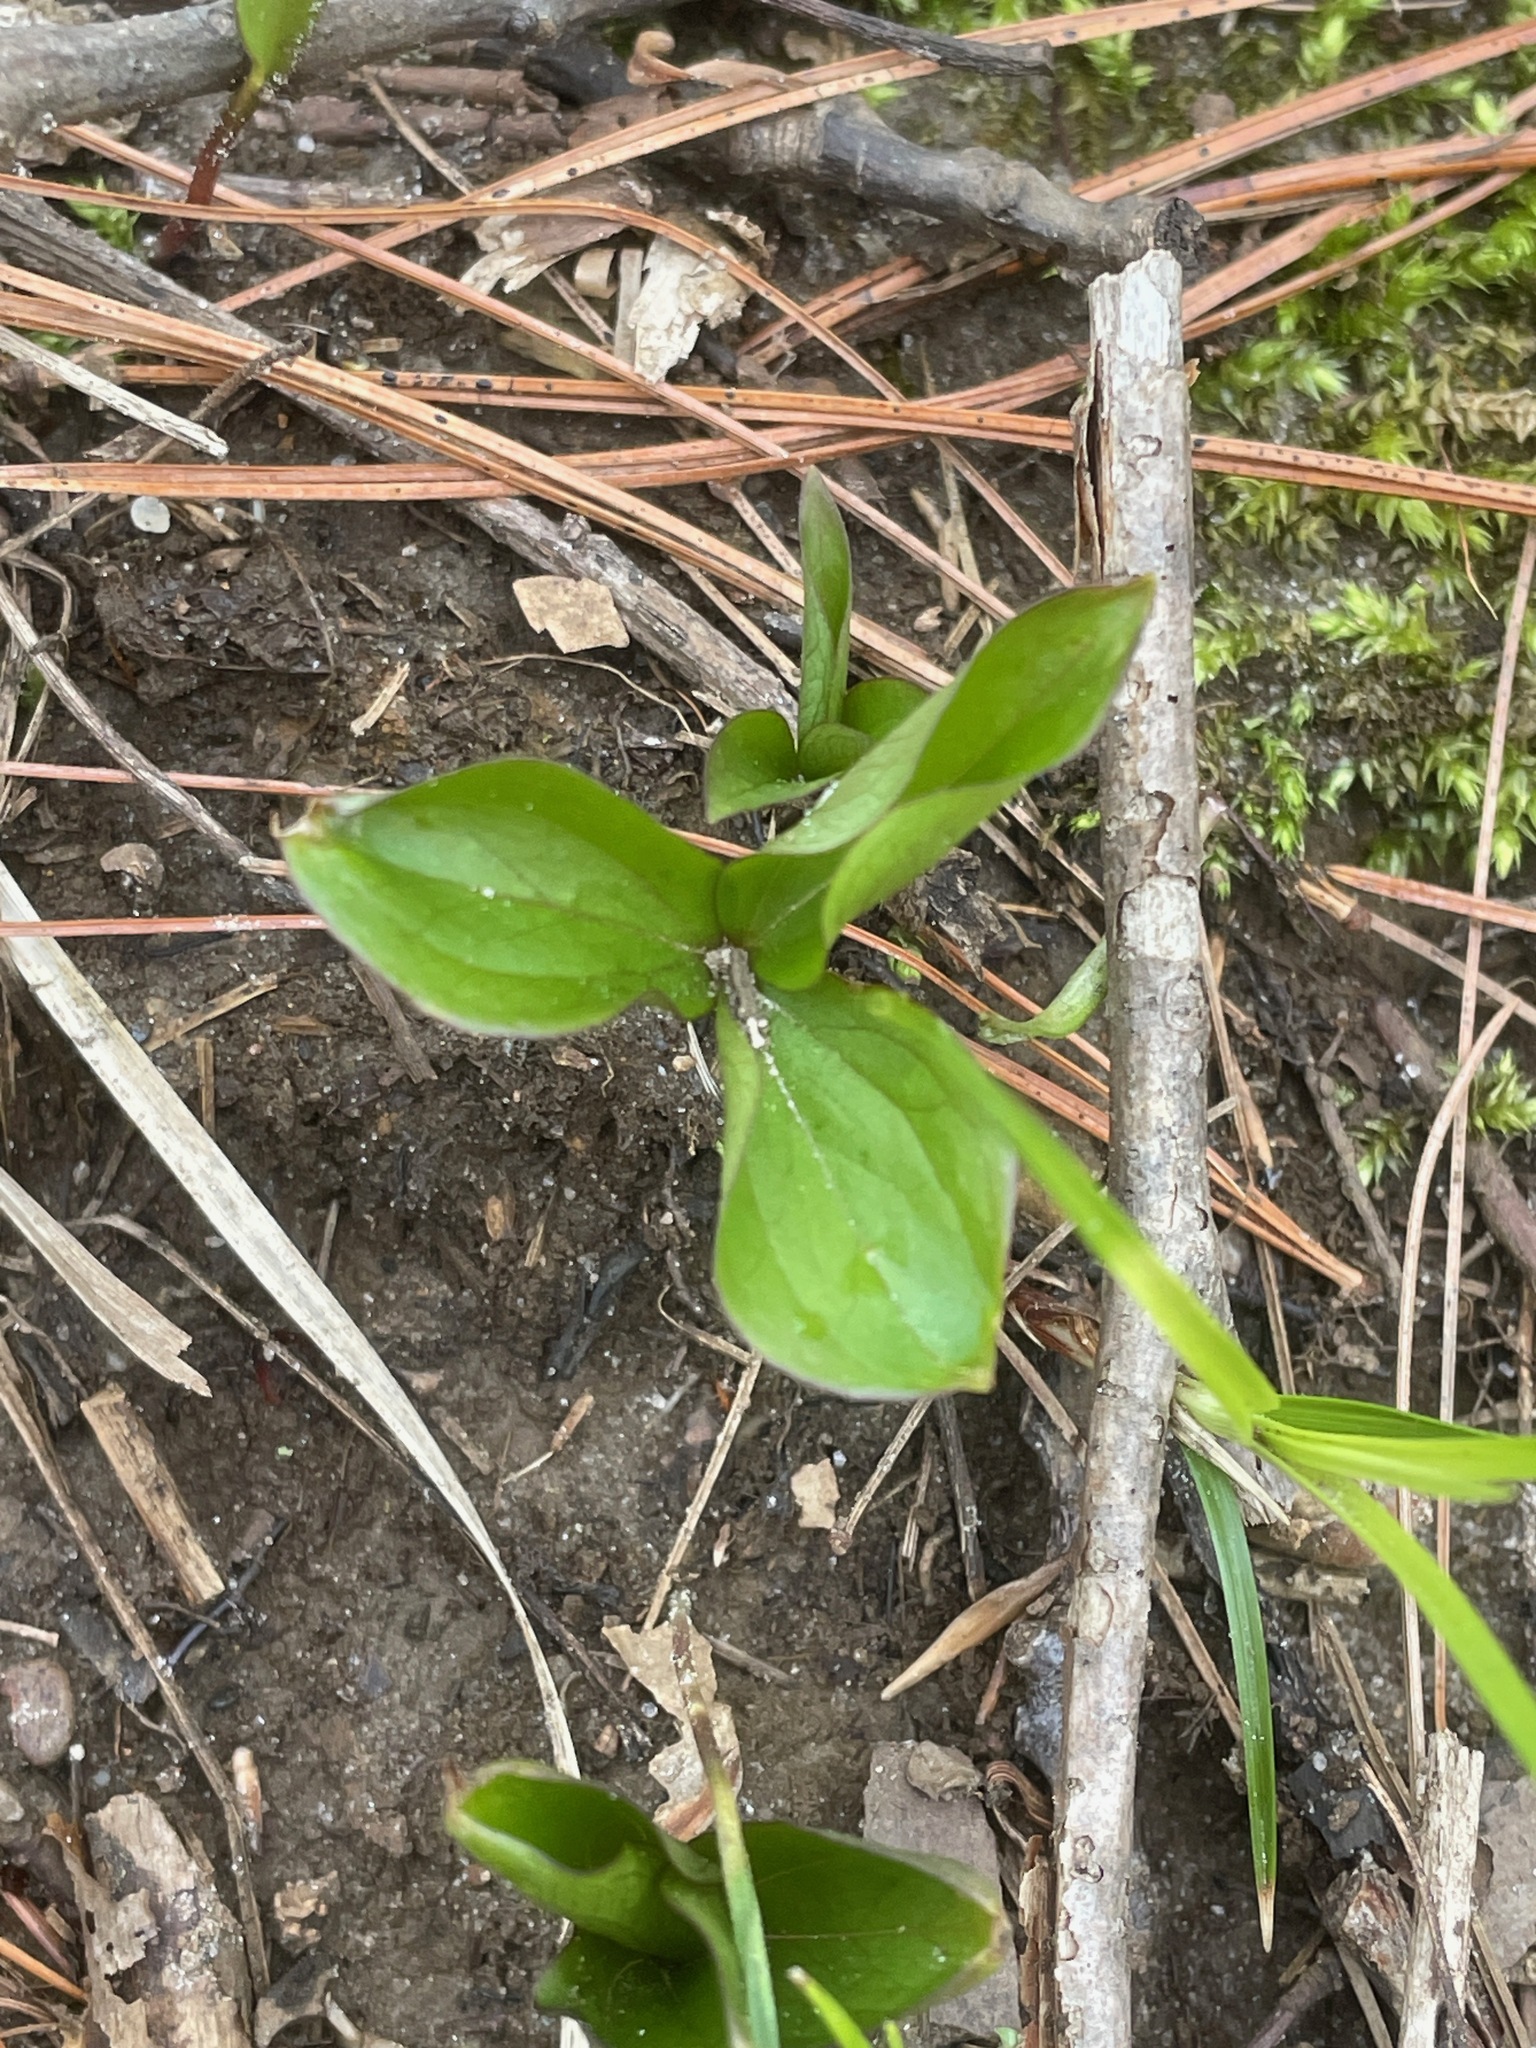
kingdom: Plantae
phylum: Tracheophyta
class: Liliopsida
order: Liliales
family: Melanthiaceae
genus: Trillium
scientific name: Trillium grandiflorum
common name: Great white trillium
